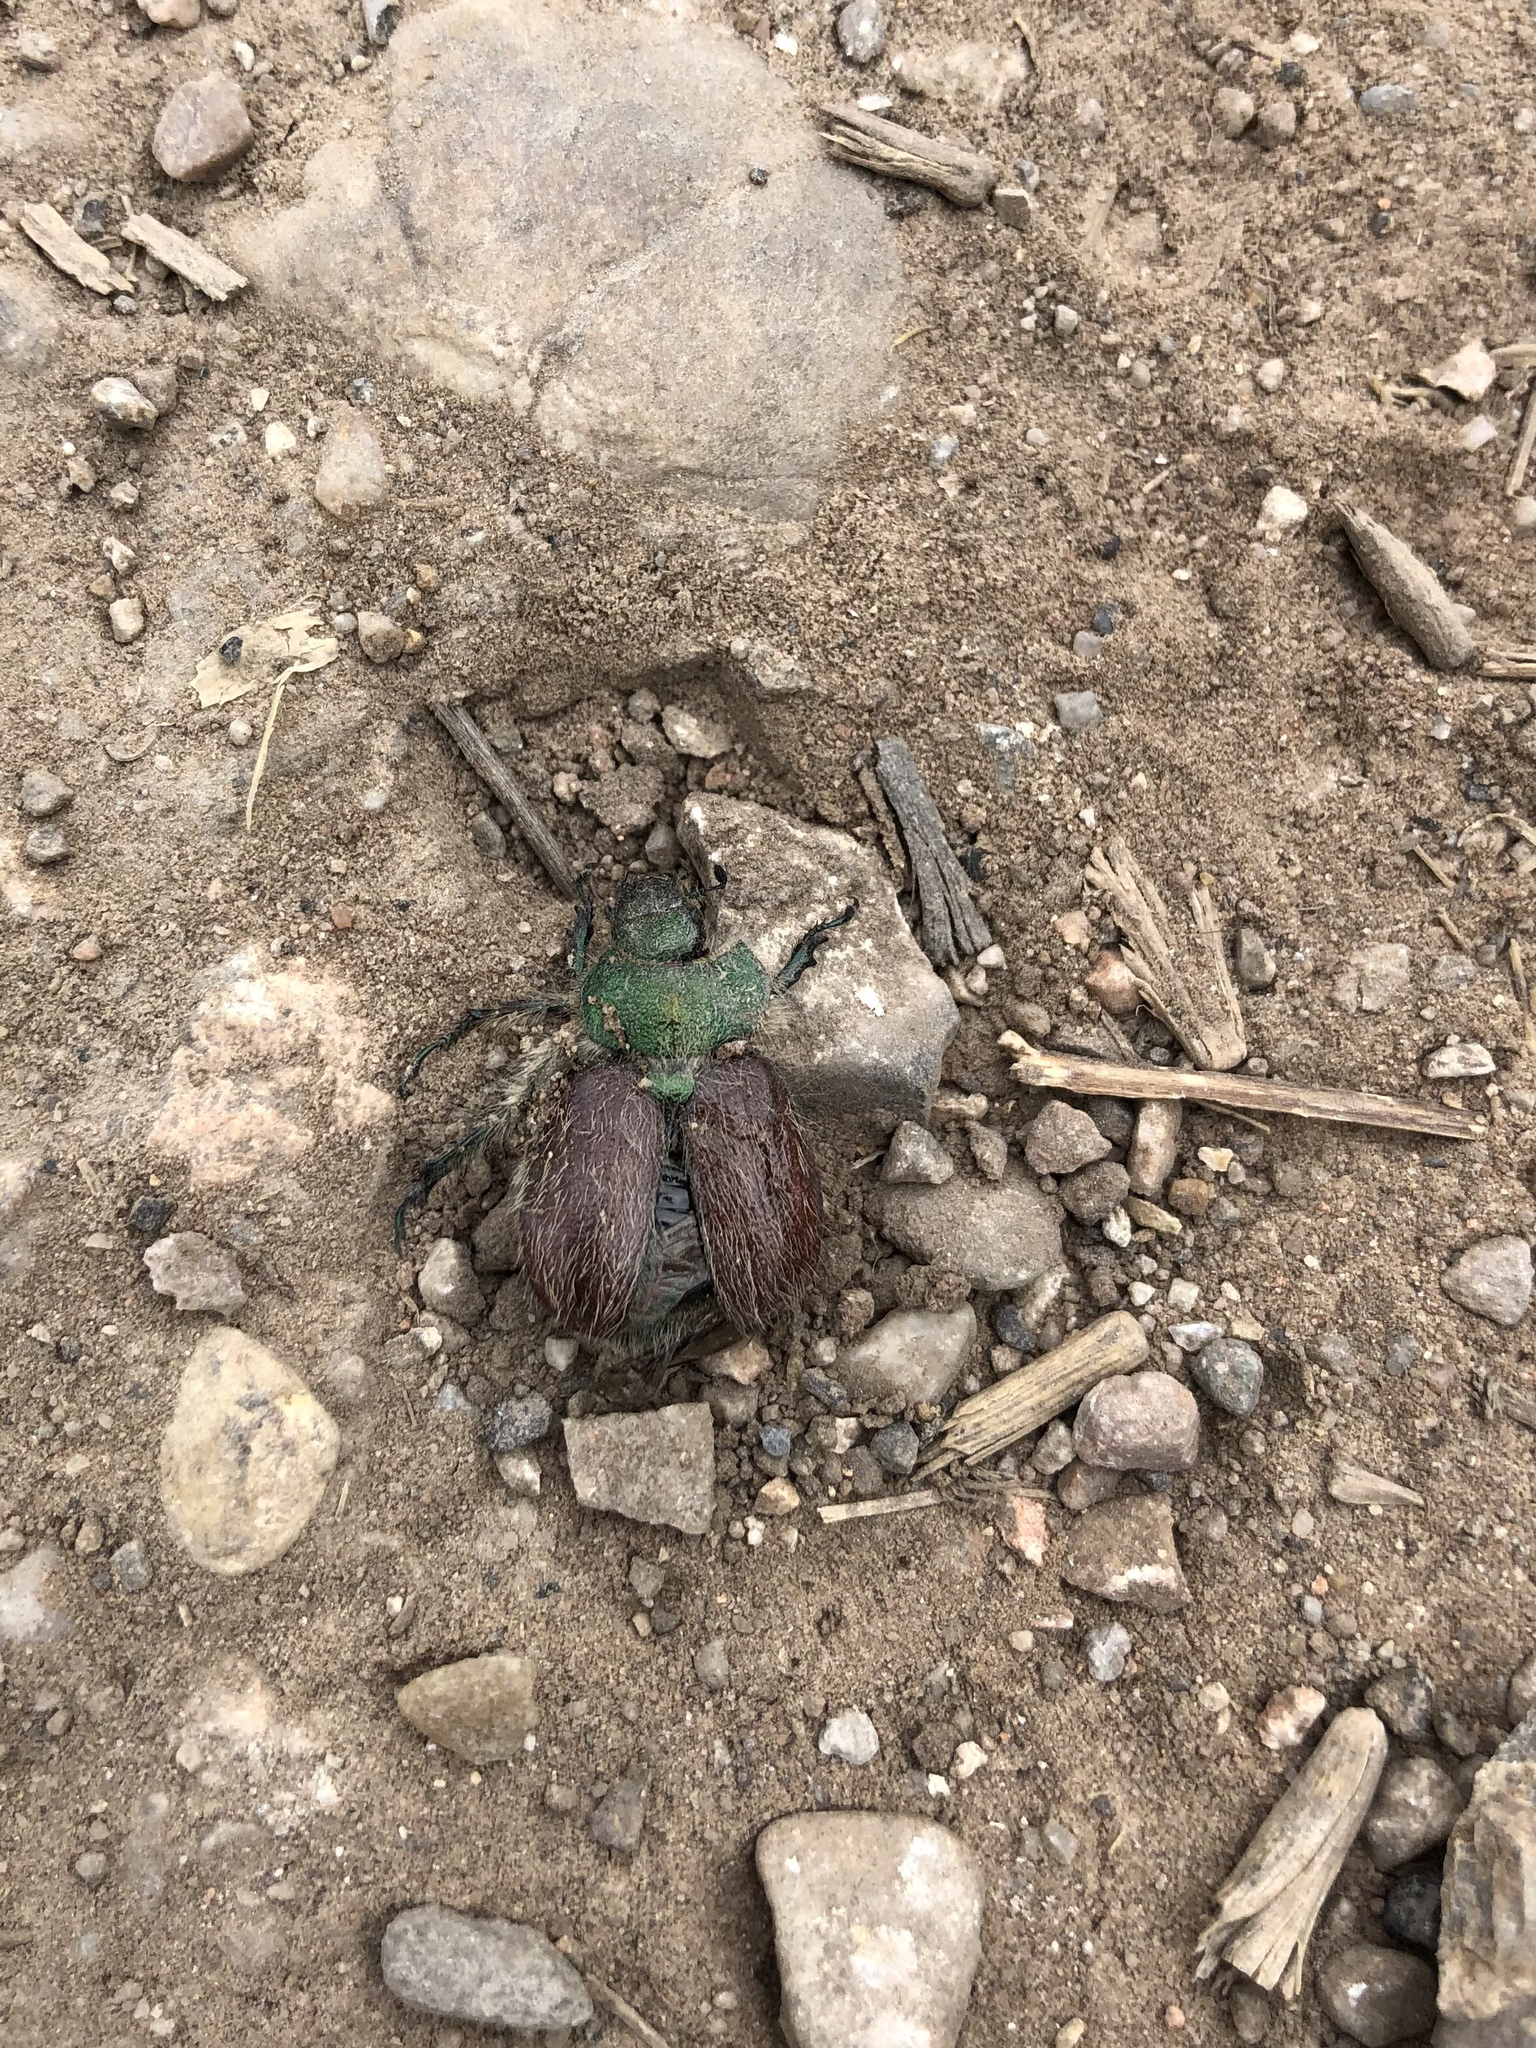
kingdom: Animalia
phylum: Arthropoda
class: Insecta
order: Coleoptera
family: Scarabaeidae
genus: Paracotalpa
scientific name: Paracotalpa granicollis
